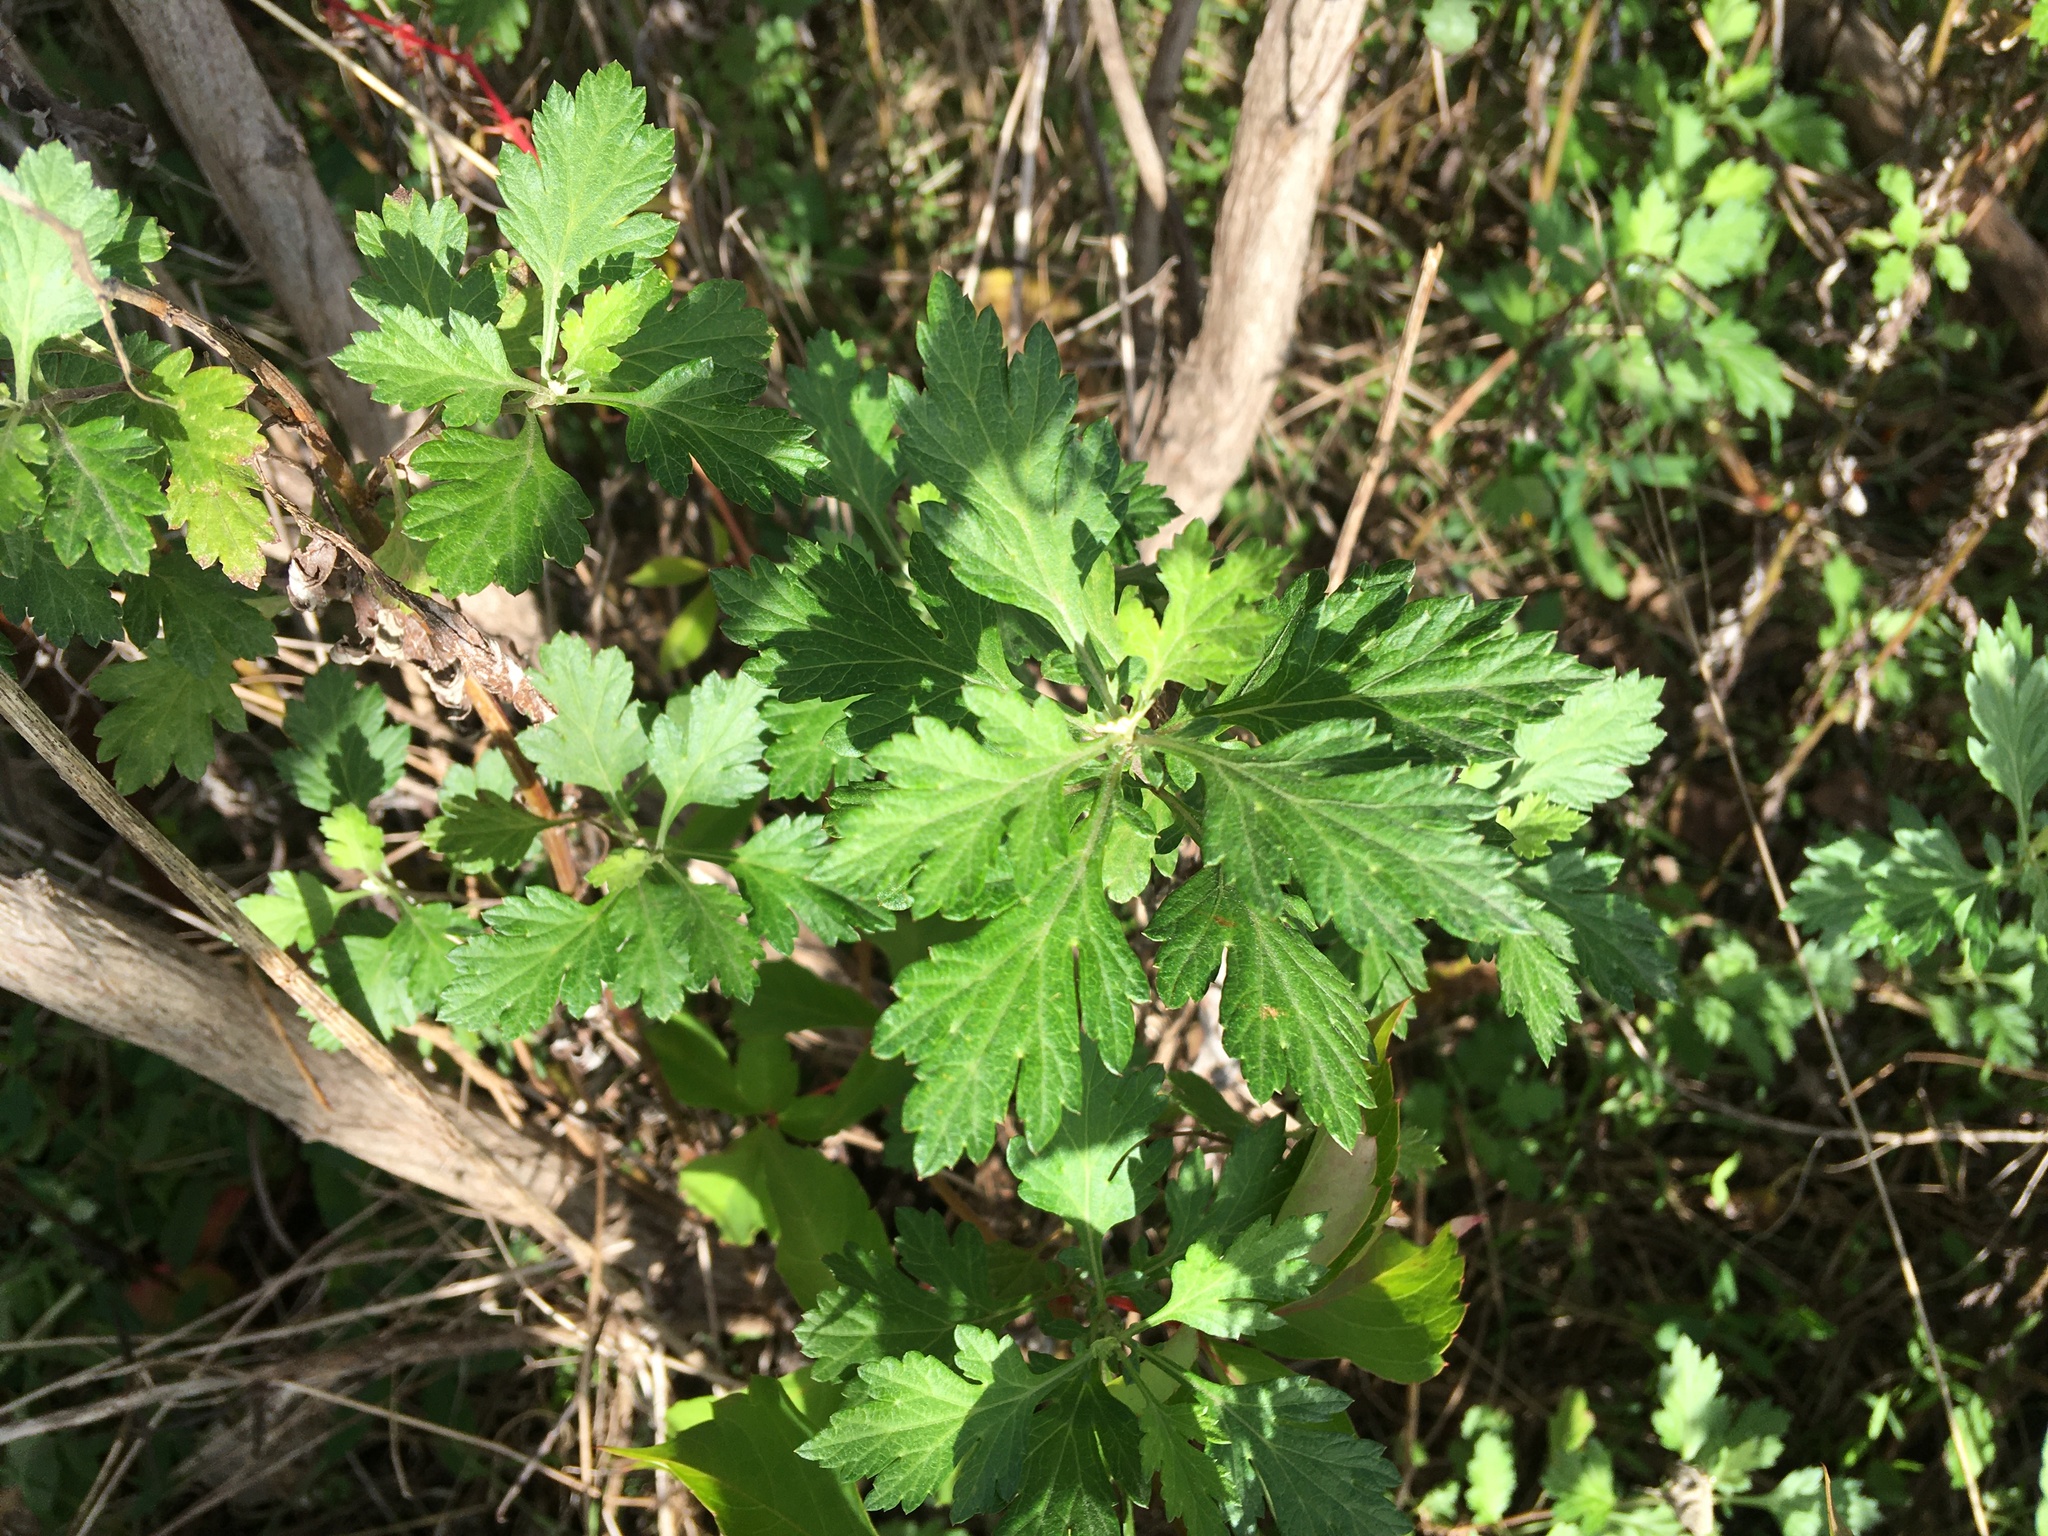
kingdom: Plantae
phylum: Tracheophyta
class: Magnoliopsida
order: Asterales
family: Asteraceae
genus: Artemisia
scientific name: Artemisia vulgaris
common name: Mugwort
